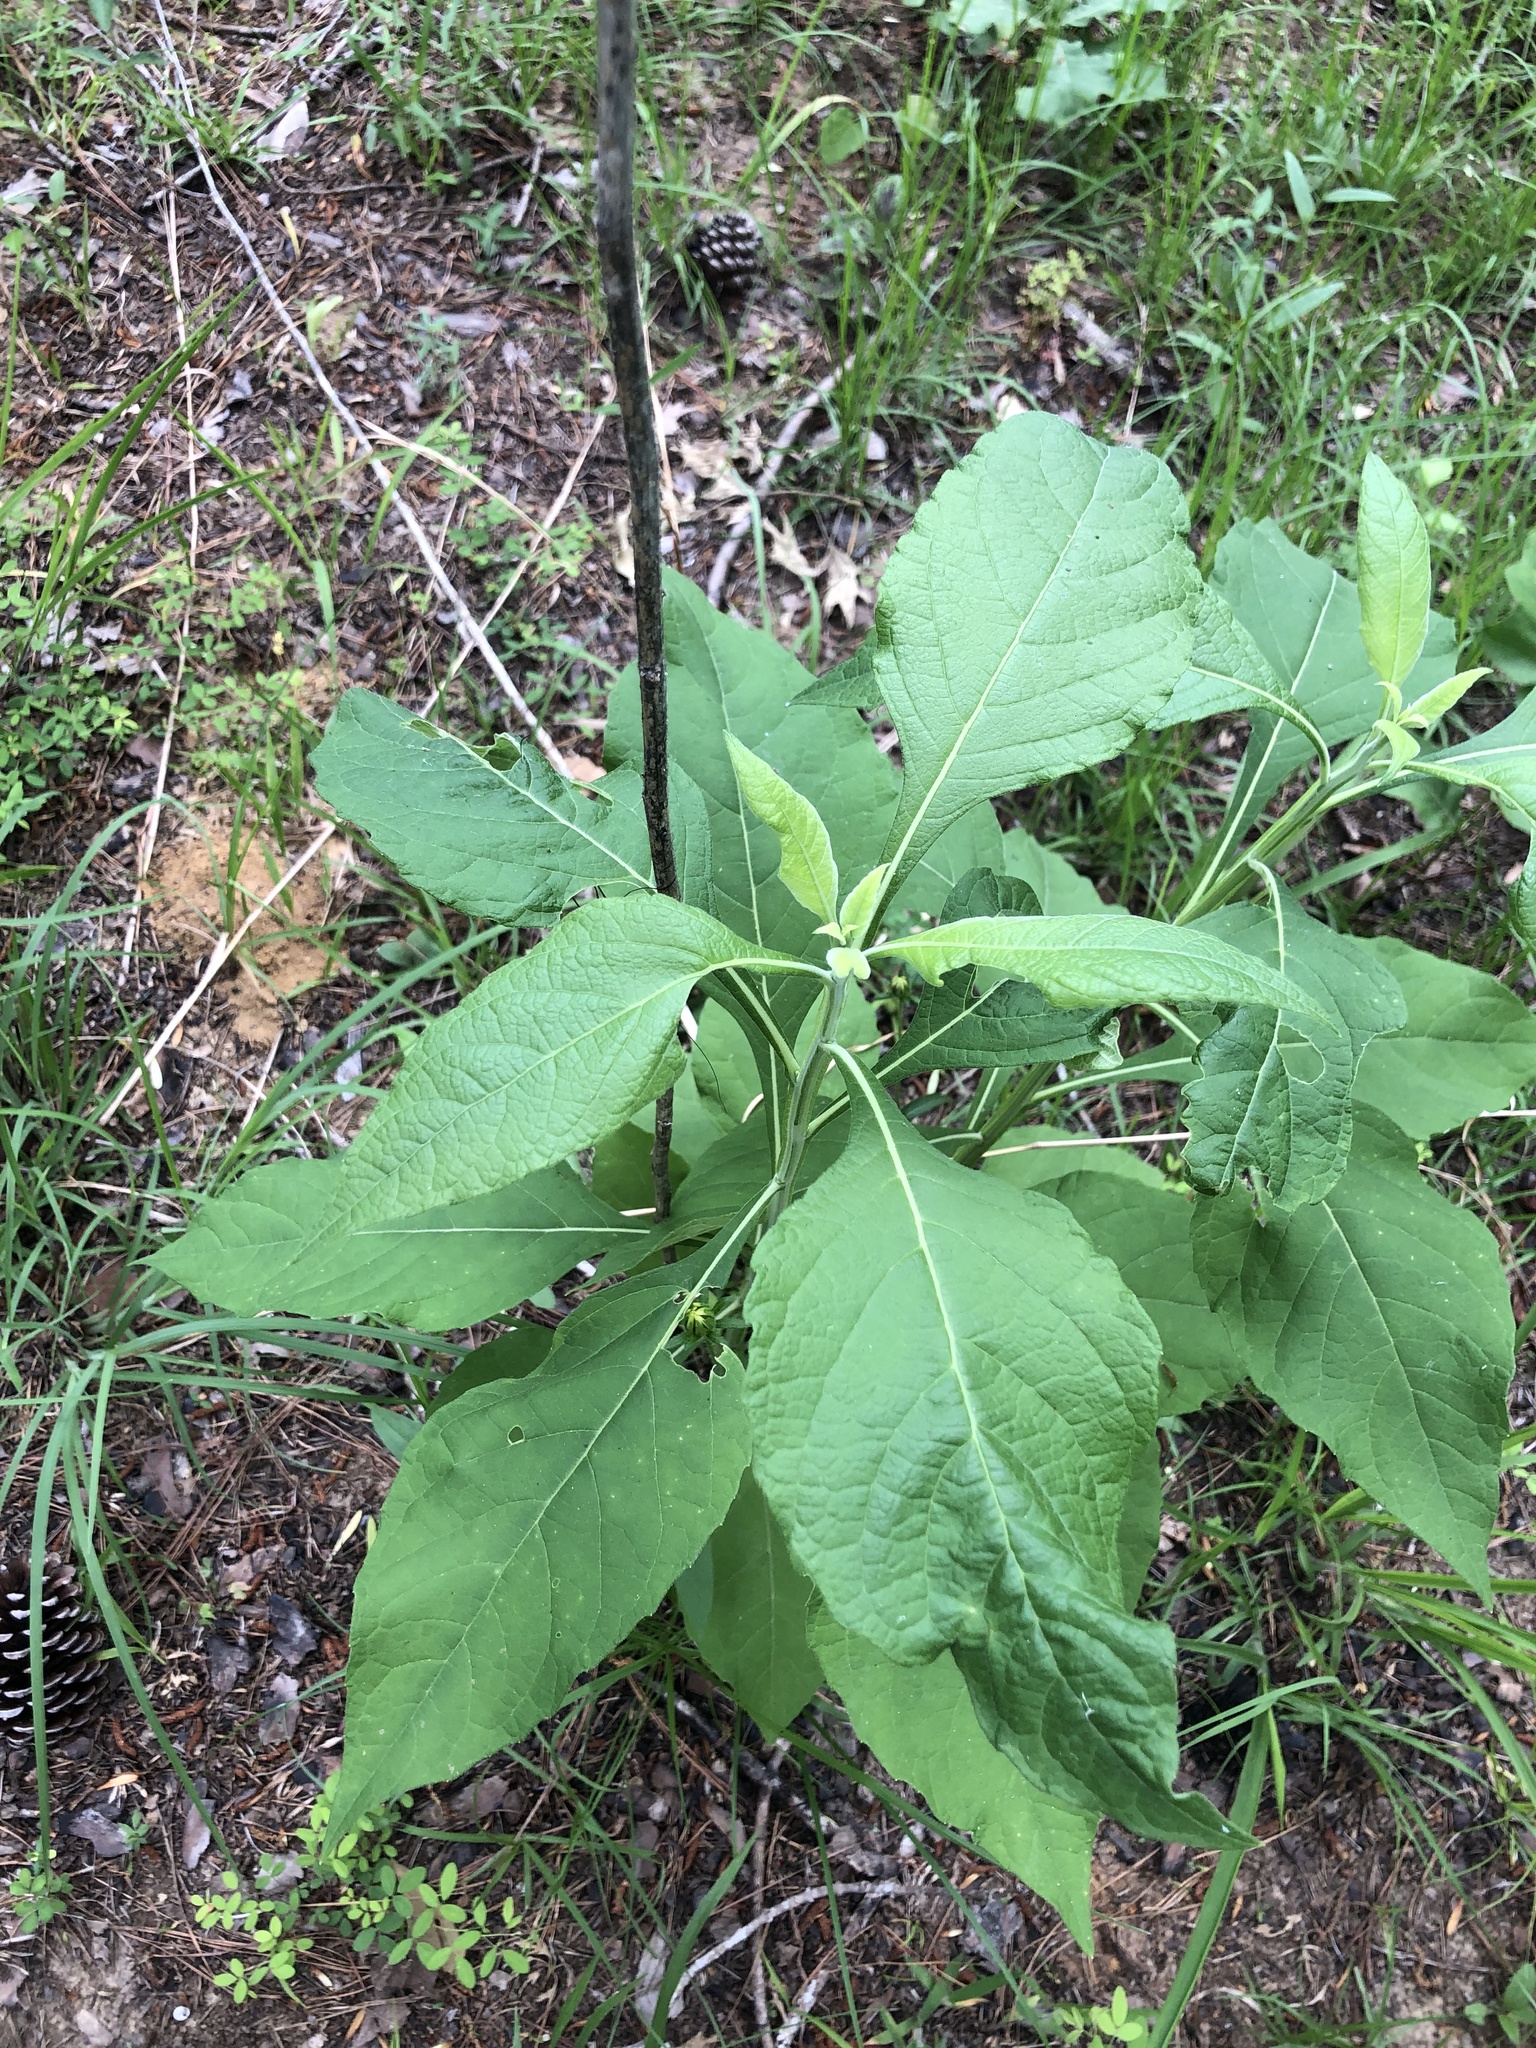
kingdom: Plantae
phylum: Tracheophyta
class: Magnoliopsida
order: Asterales
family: Asteraceae
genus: Verbesina
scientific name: Verbesina virginica
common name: Frostweed
